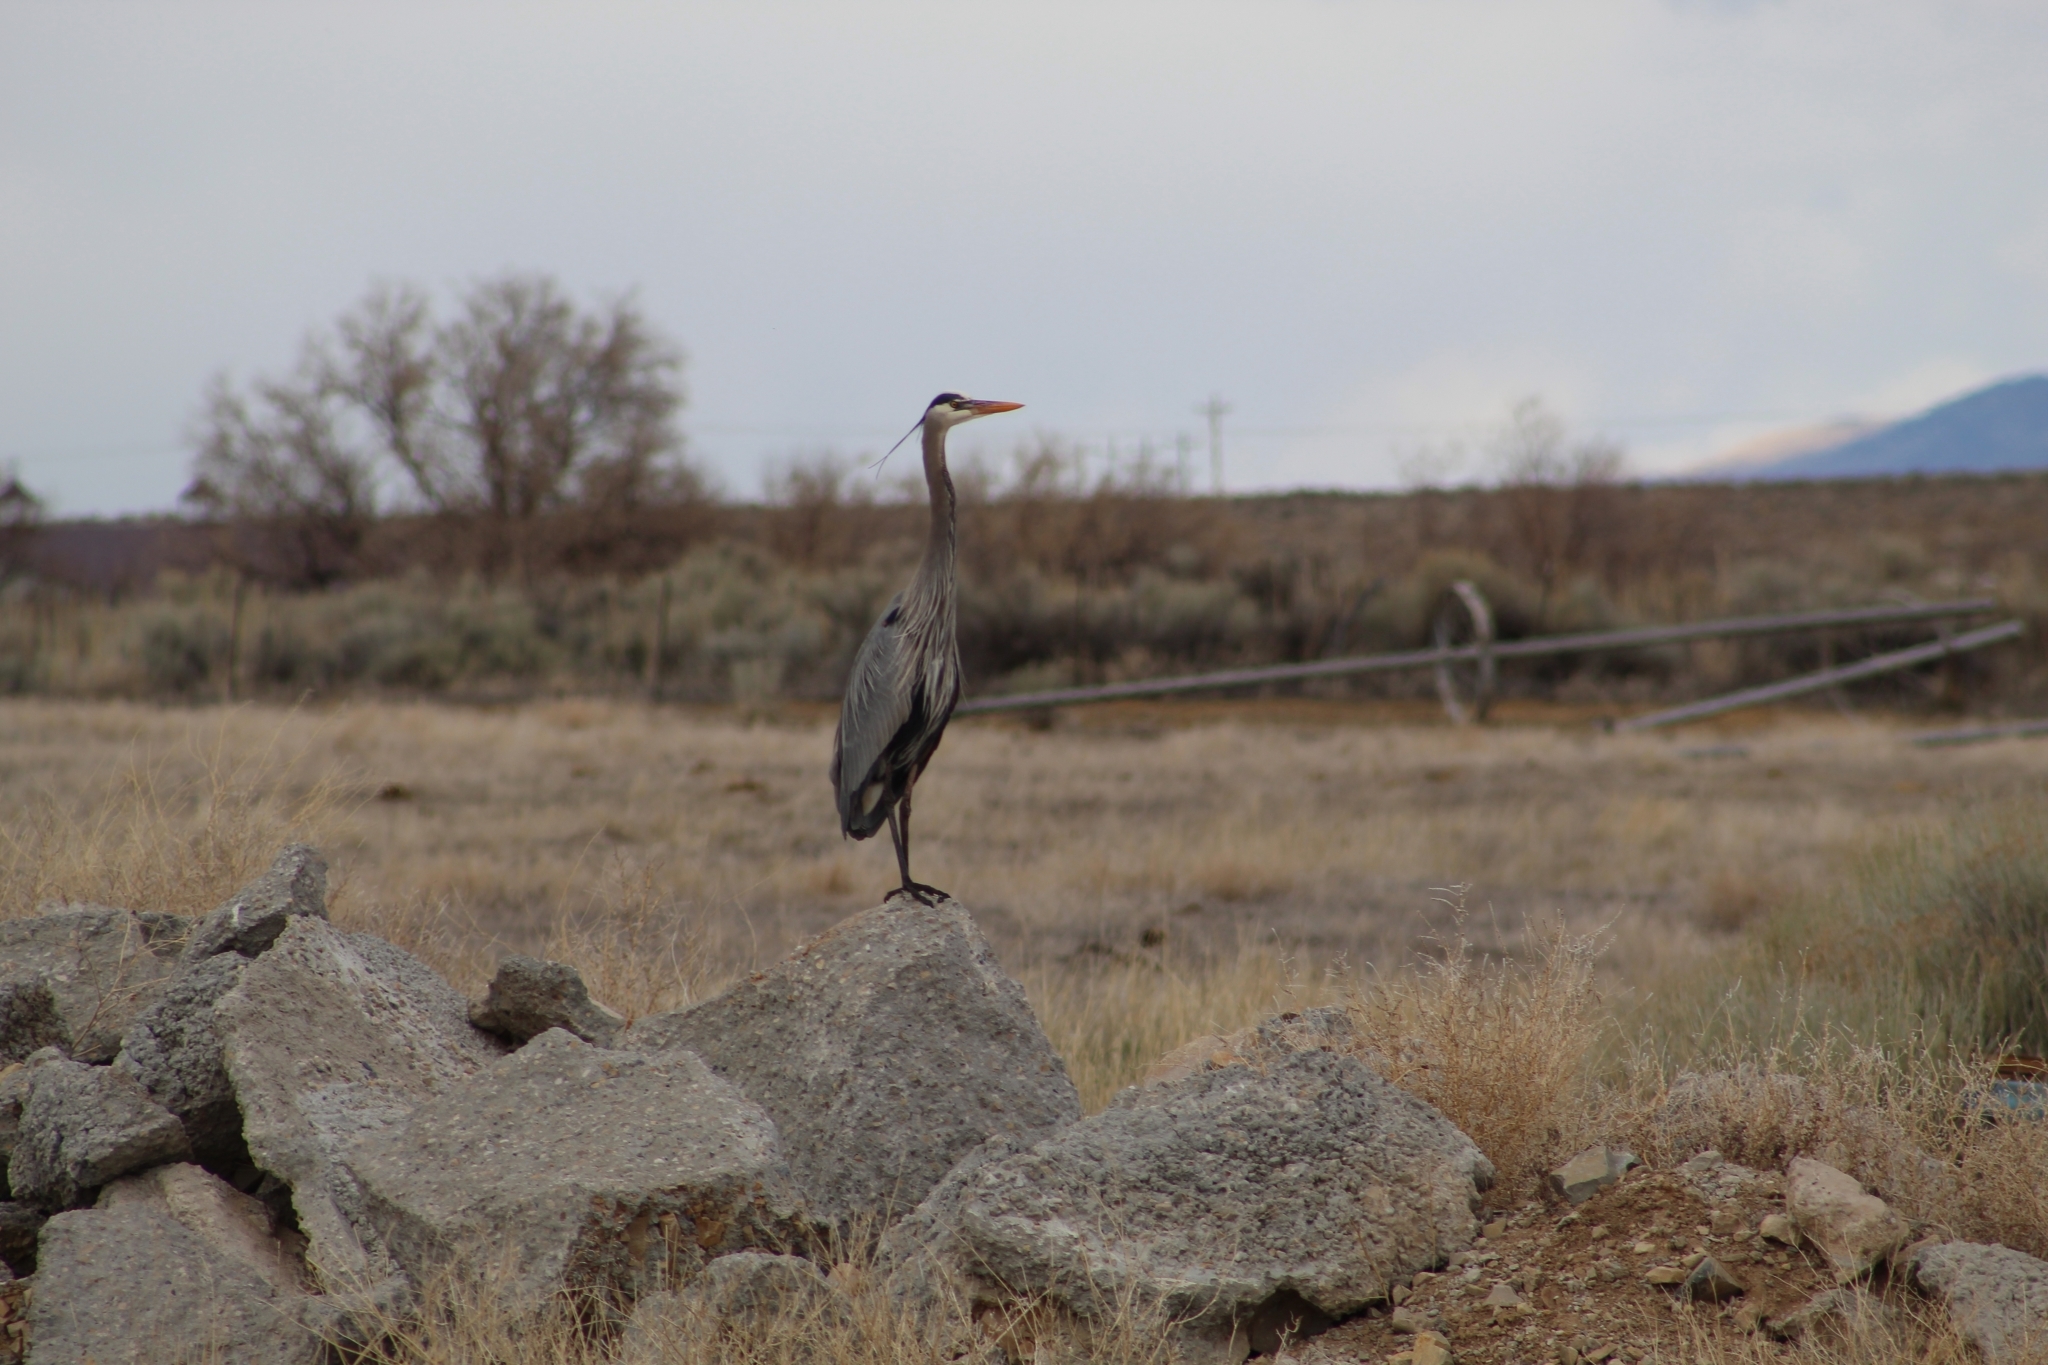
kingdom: Animalia
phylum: Chordata
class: Aves
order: Pelecaniformes
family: Ardeidae
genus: Ardea
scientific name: Ardea herodias
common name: Great blue heron
